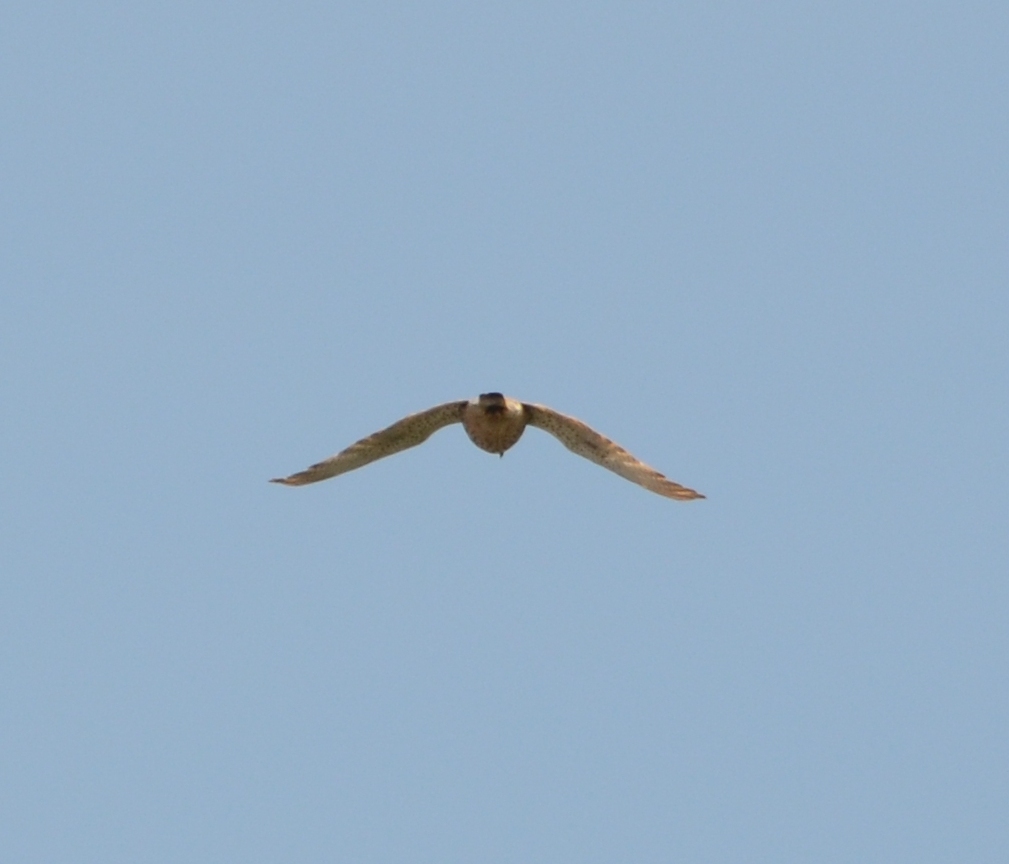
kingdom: Animalia
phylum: Chordata
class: Aves
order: Falconiformes
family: Falconidae
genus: Falco
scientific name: Falco tinnunculus
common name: Common kestrel
